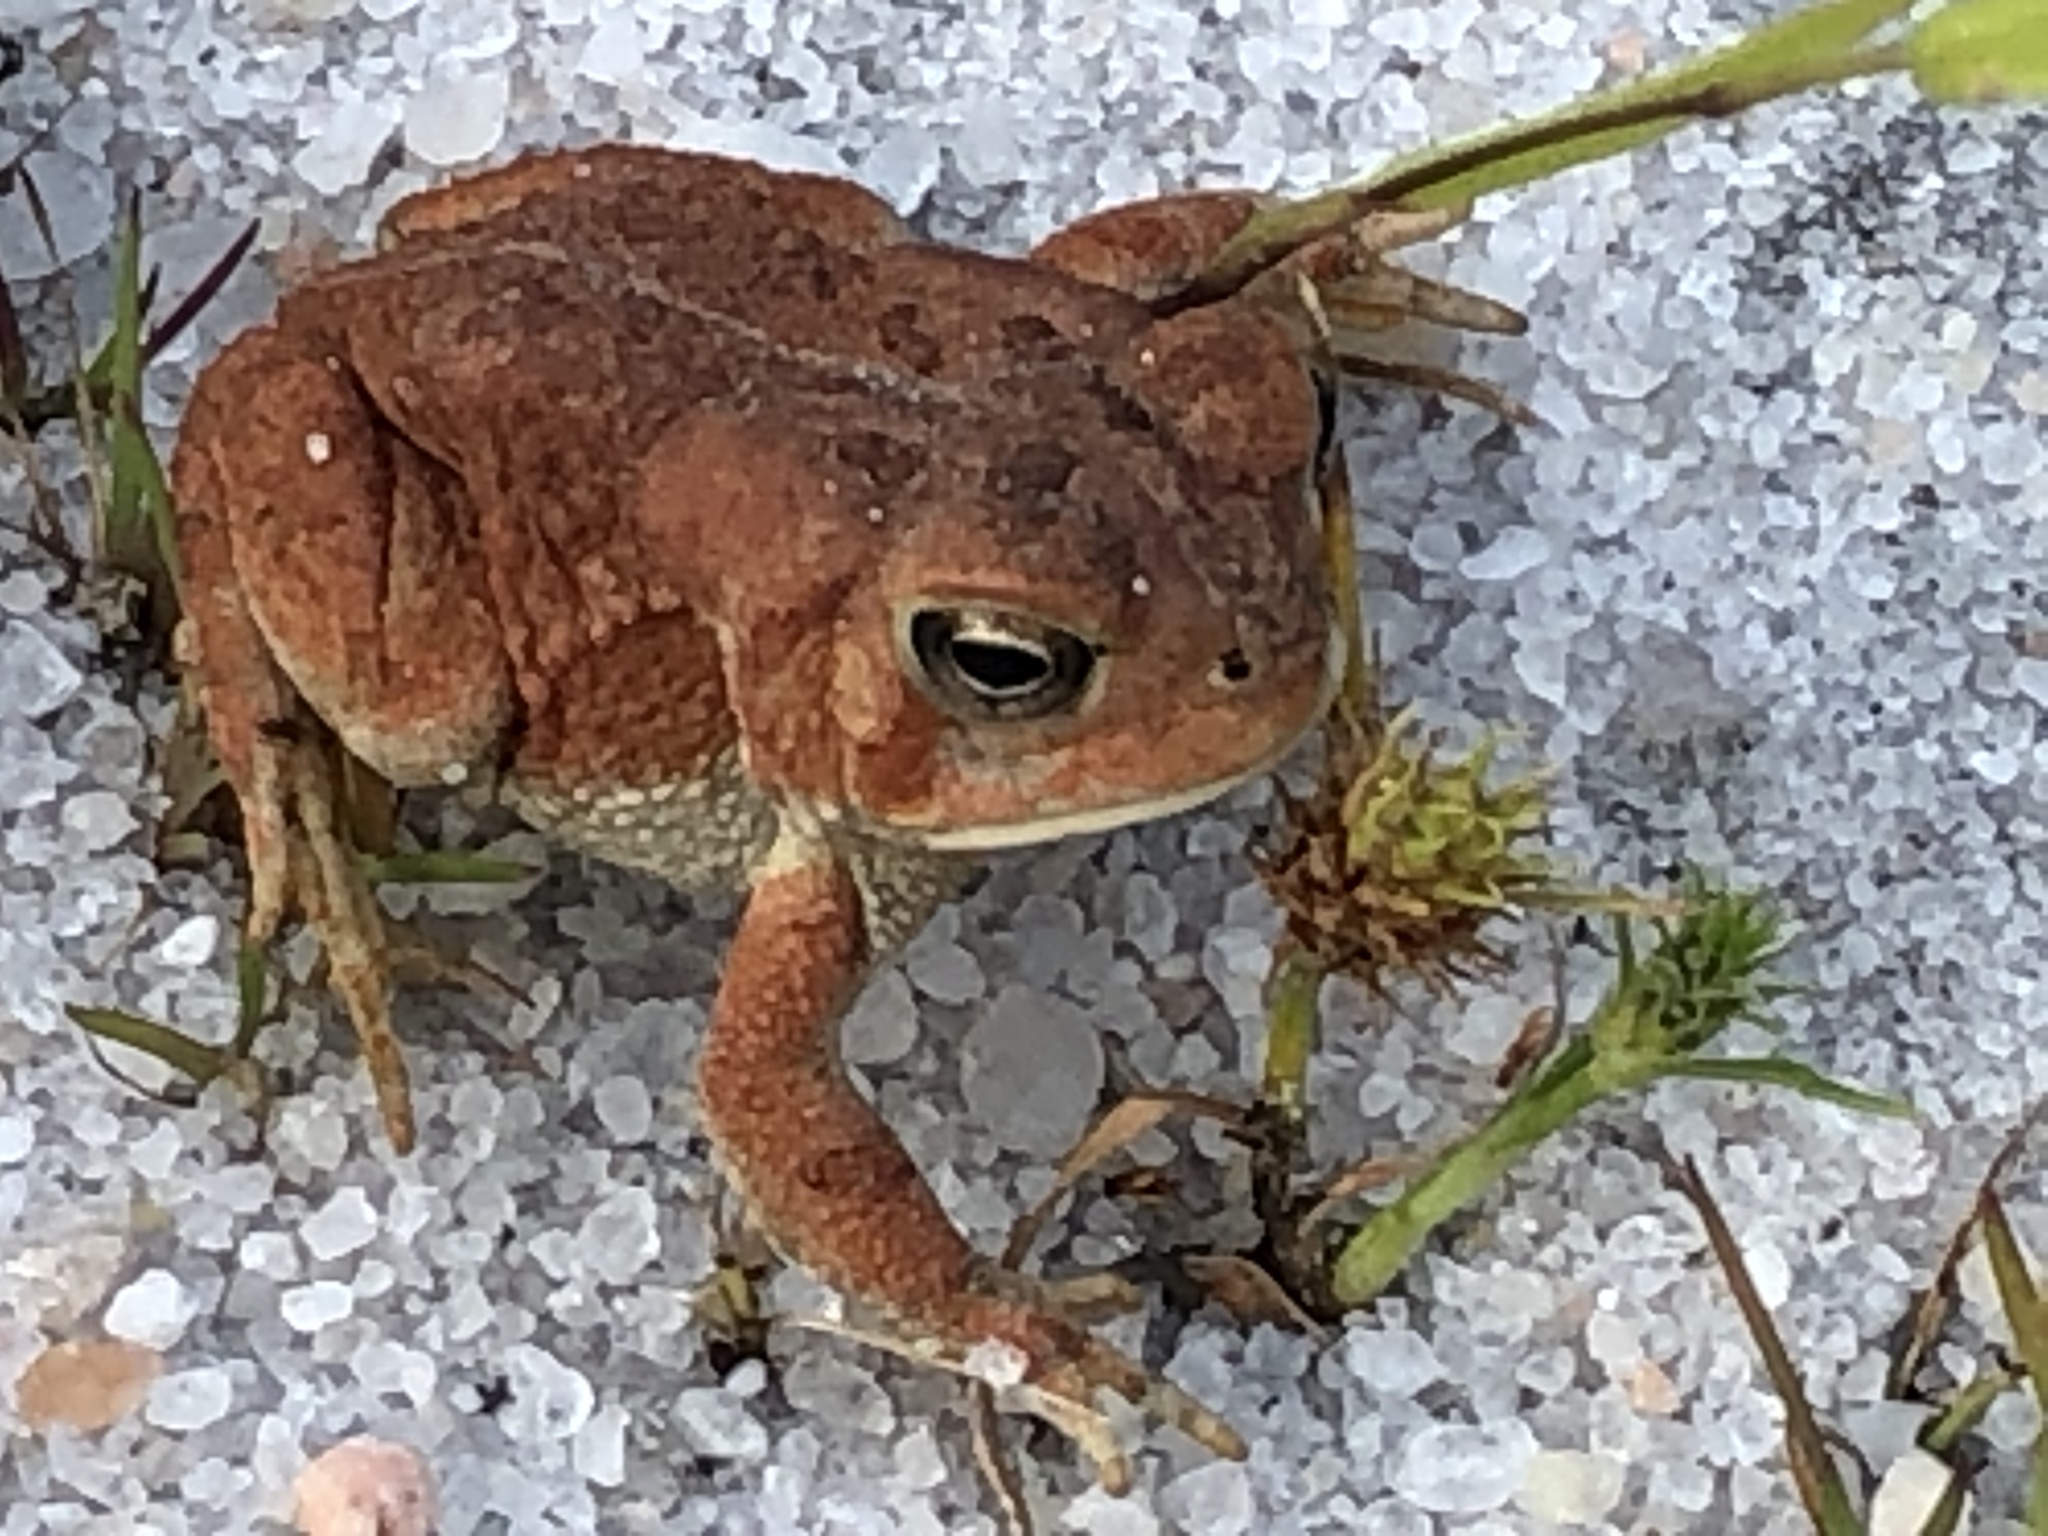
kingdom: Animalia
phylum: Chordata
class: Amphibia
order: Anura
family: Bufonidae
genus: Anaxyrus
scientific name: Anaxyrus fowleri
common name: Fowler's toad
